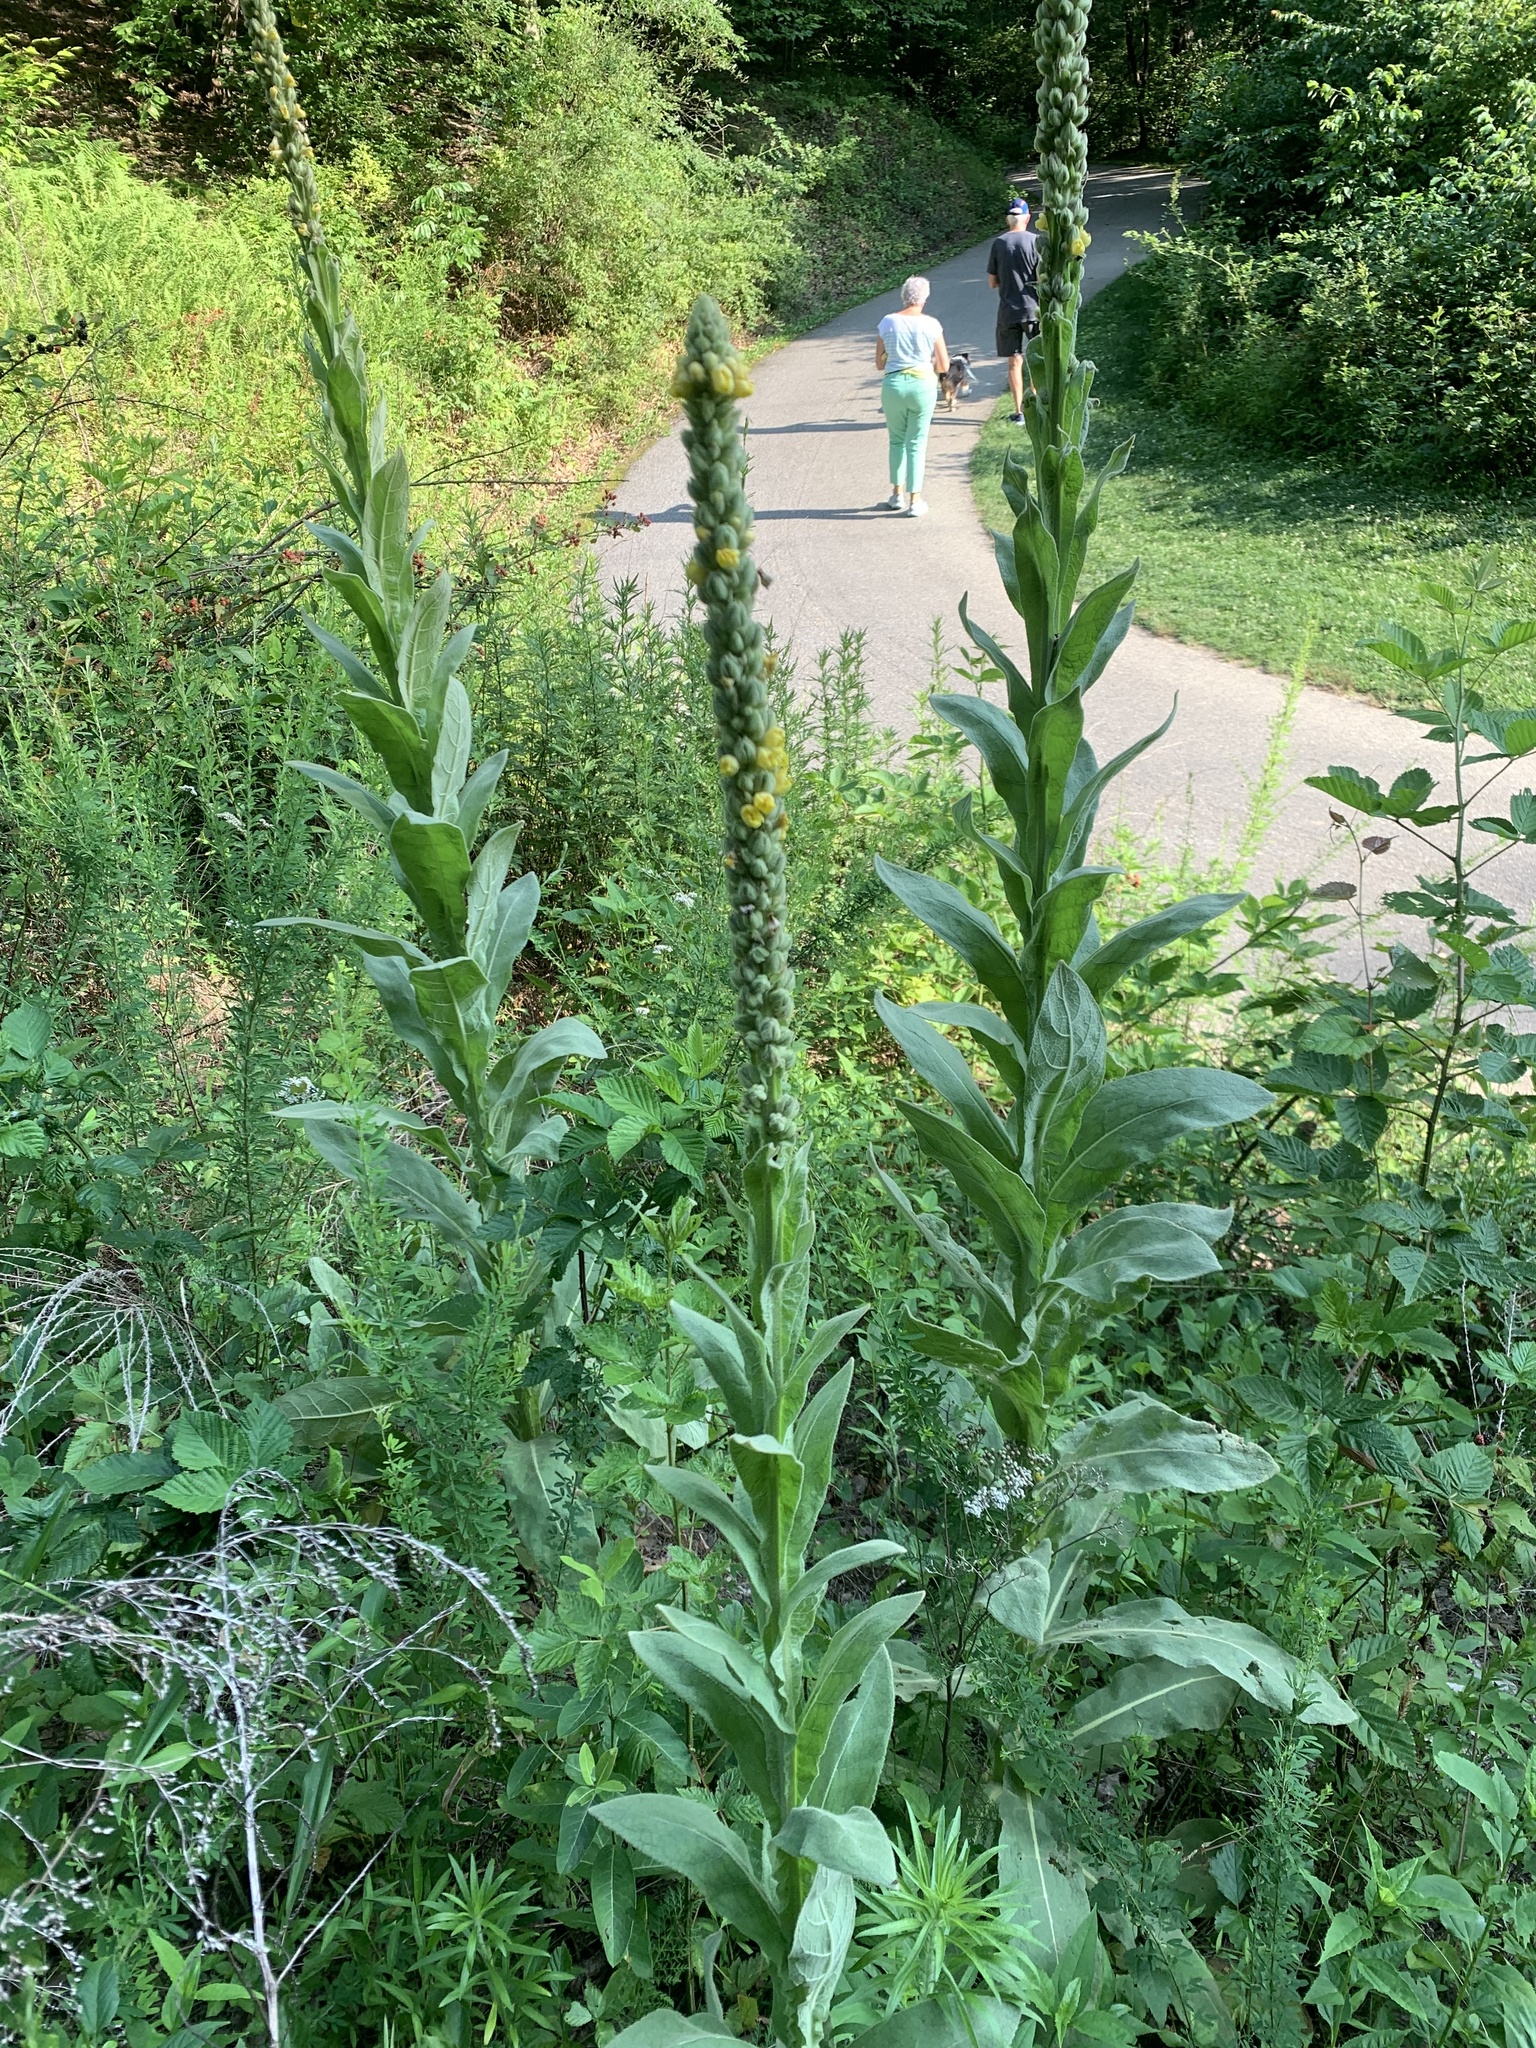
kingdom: Plantae
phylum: Tracheophyta
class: Magnoliopsida
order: Lamiales
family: Scrophulariaceae
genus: Verbascum
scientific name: Verbascum thapsus
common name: Common mullein
